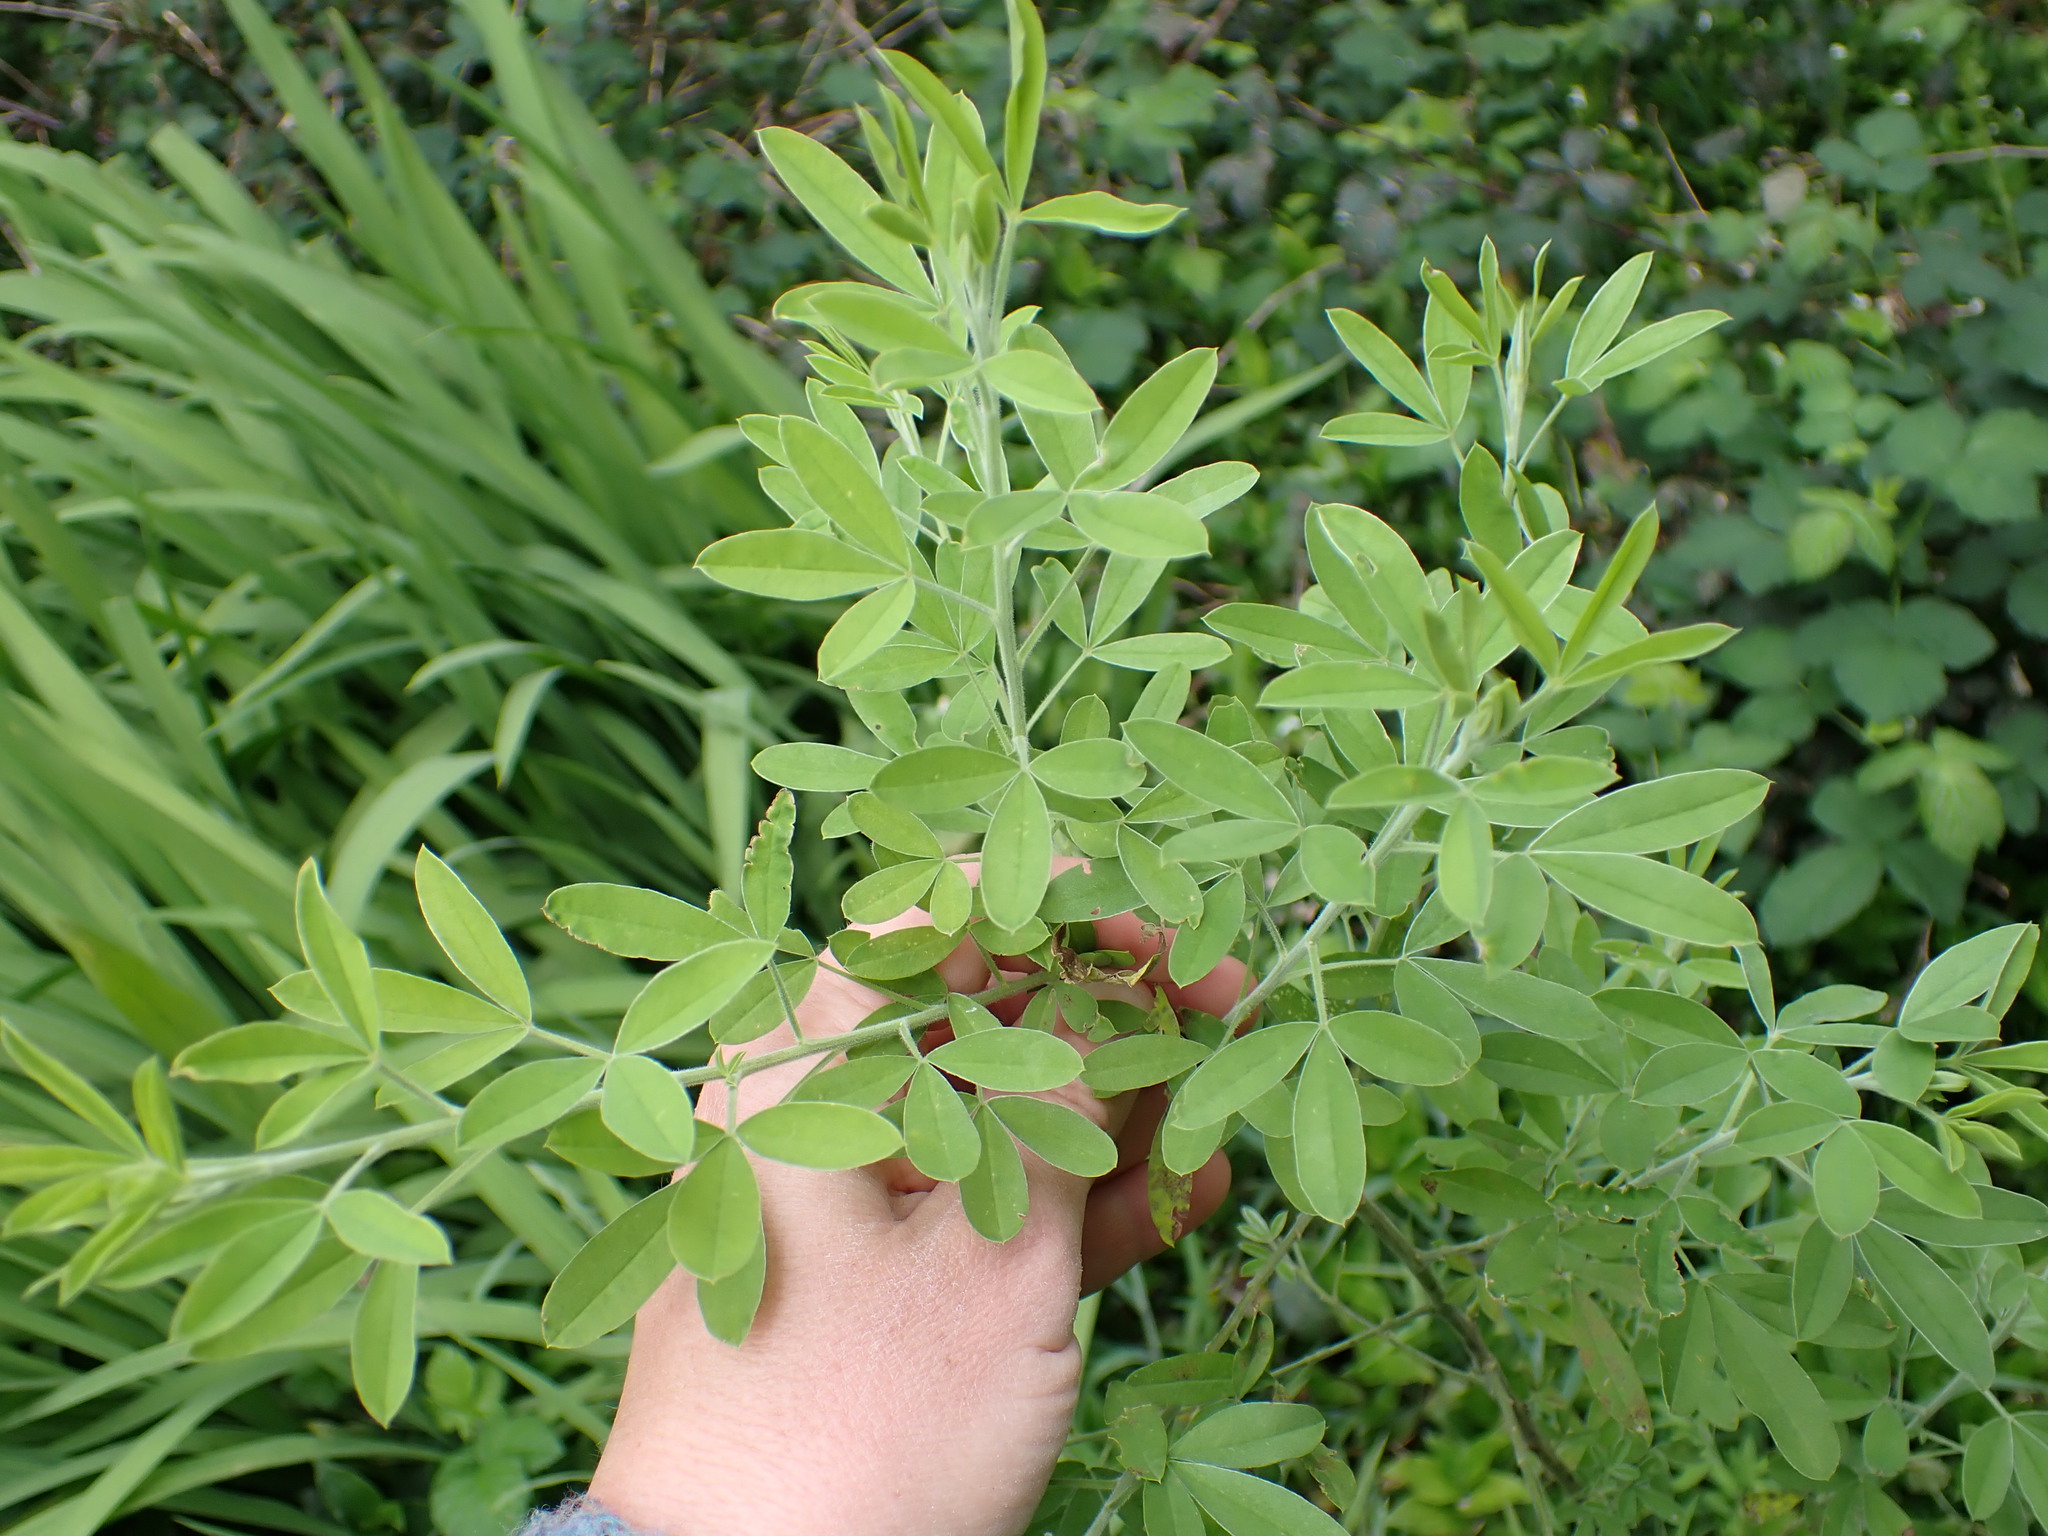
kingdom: Plantae
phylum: Tracheophyta
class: Magnoliopsida
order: Fabales
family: Fabaceae
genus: Chamaecytisus
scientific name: Chamaecytisus prolifer
